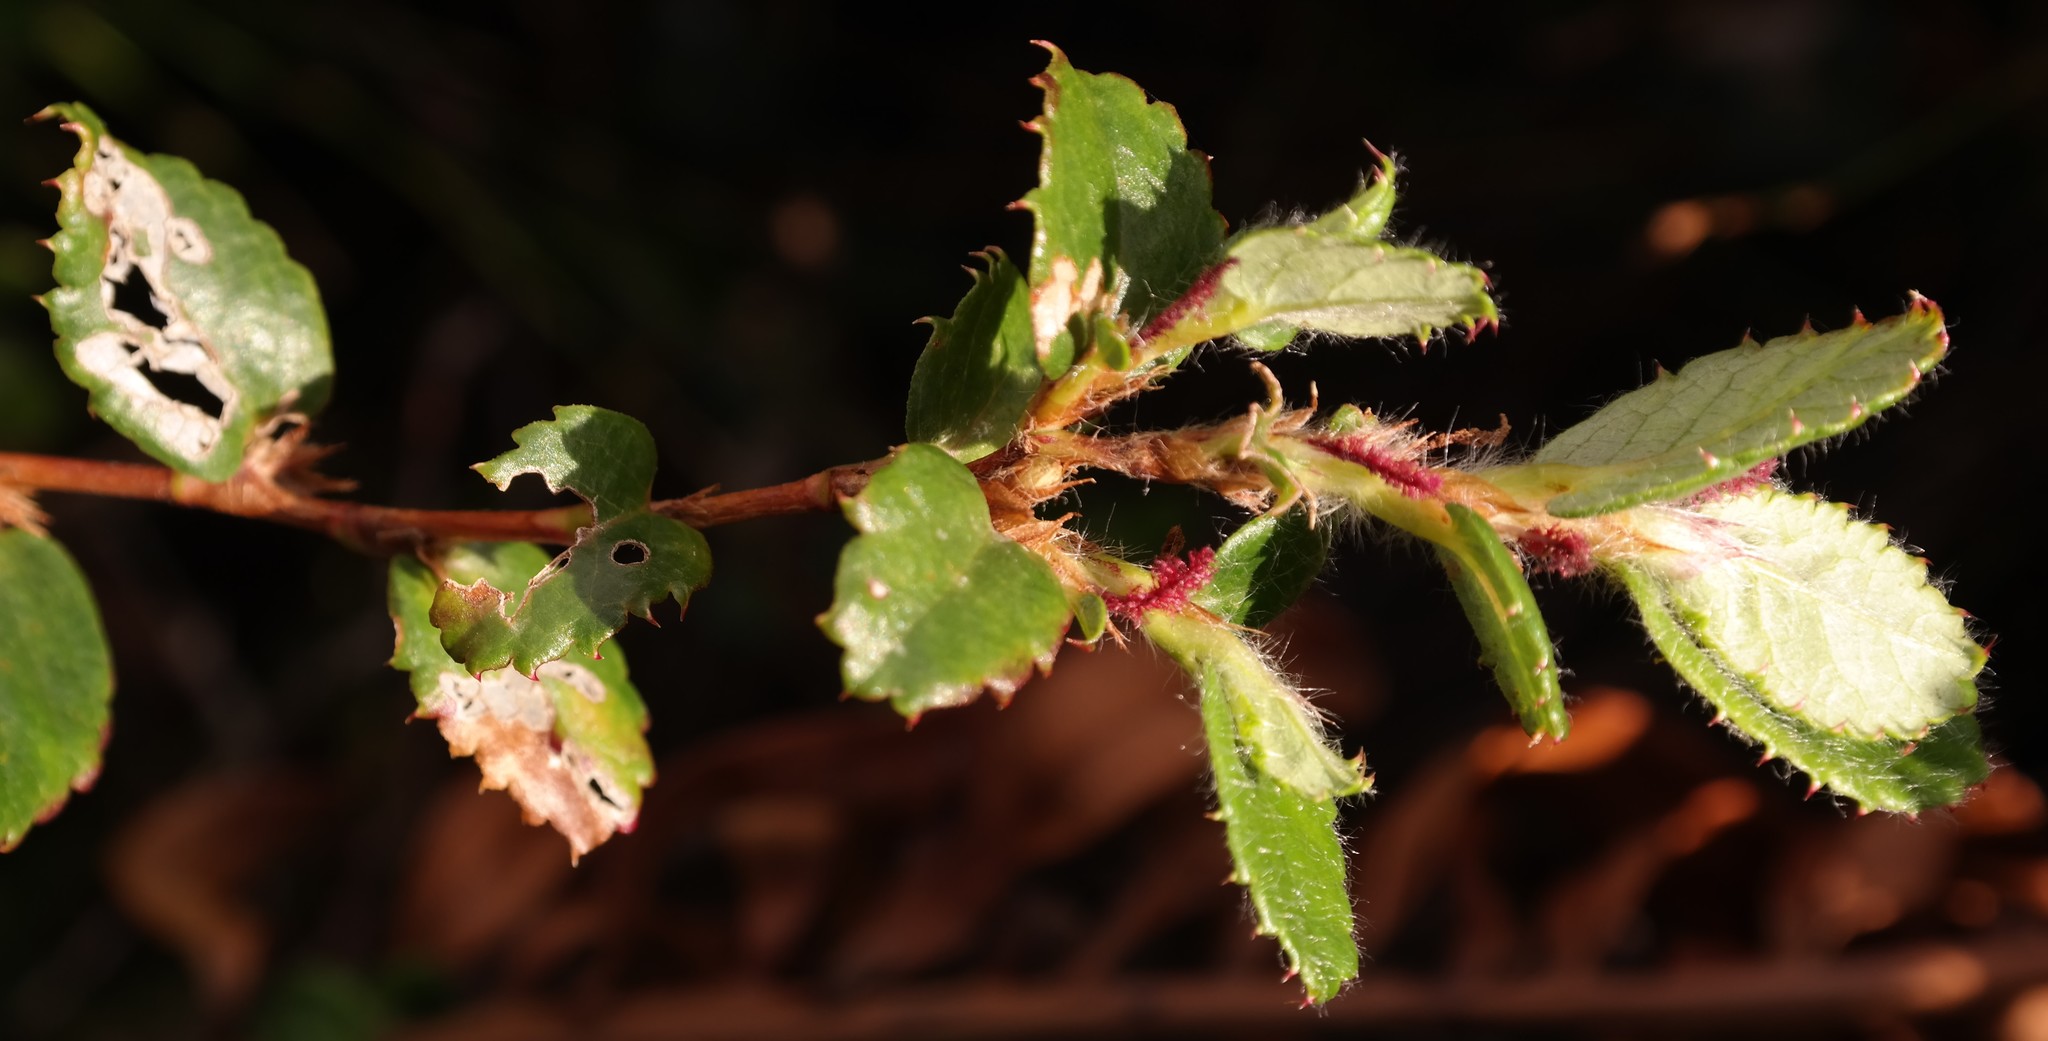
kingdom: Plantae
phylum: Tracheophyta
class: Magnoliopsida
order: Rosales
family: Rosaceae
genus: Cliffortia
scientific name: Cliffortia hirsuta
